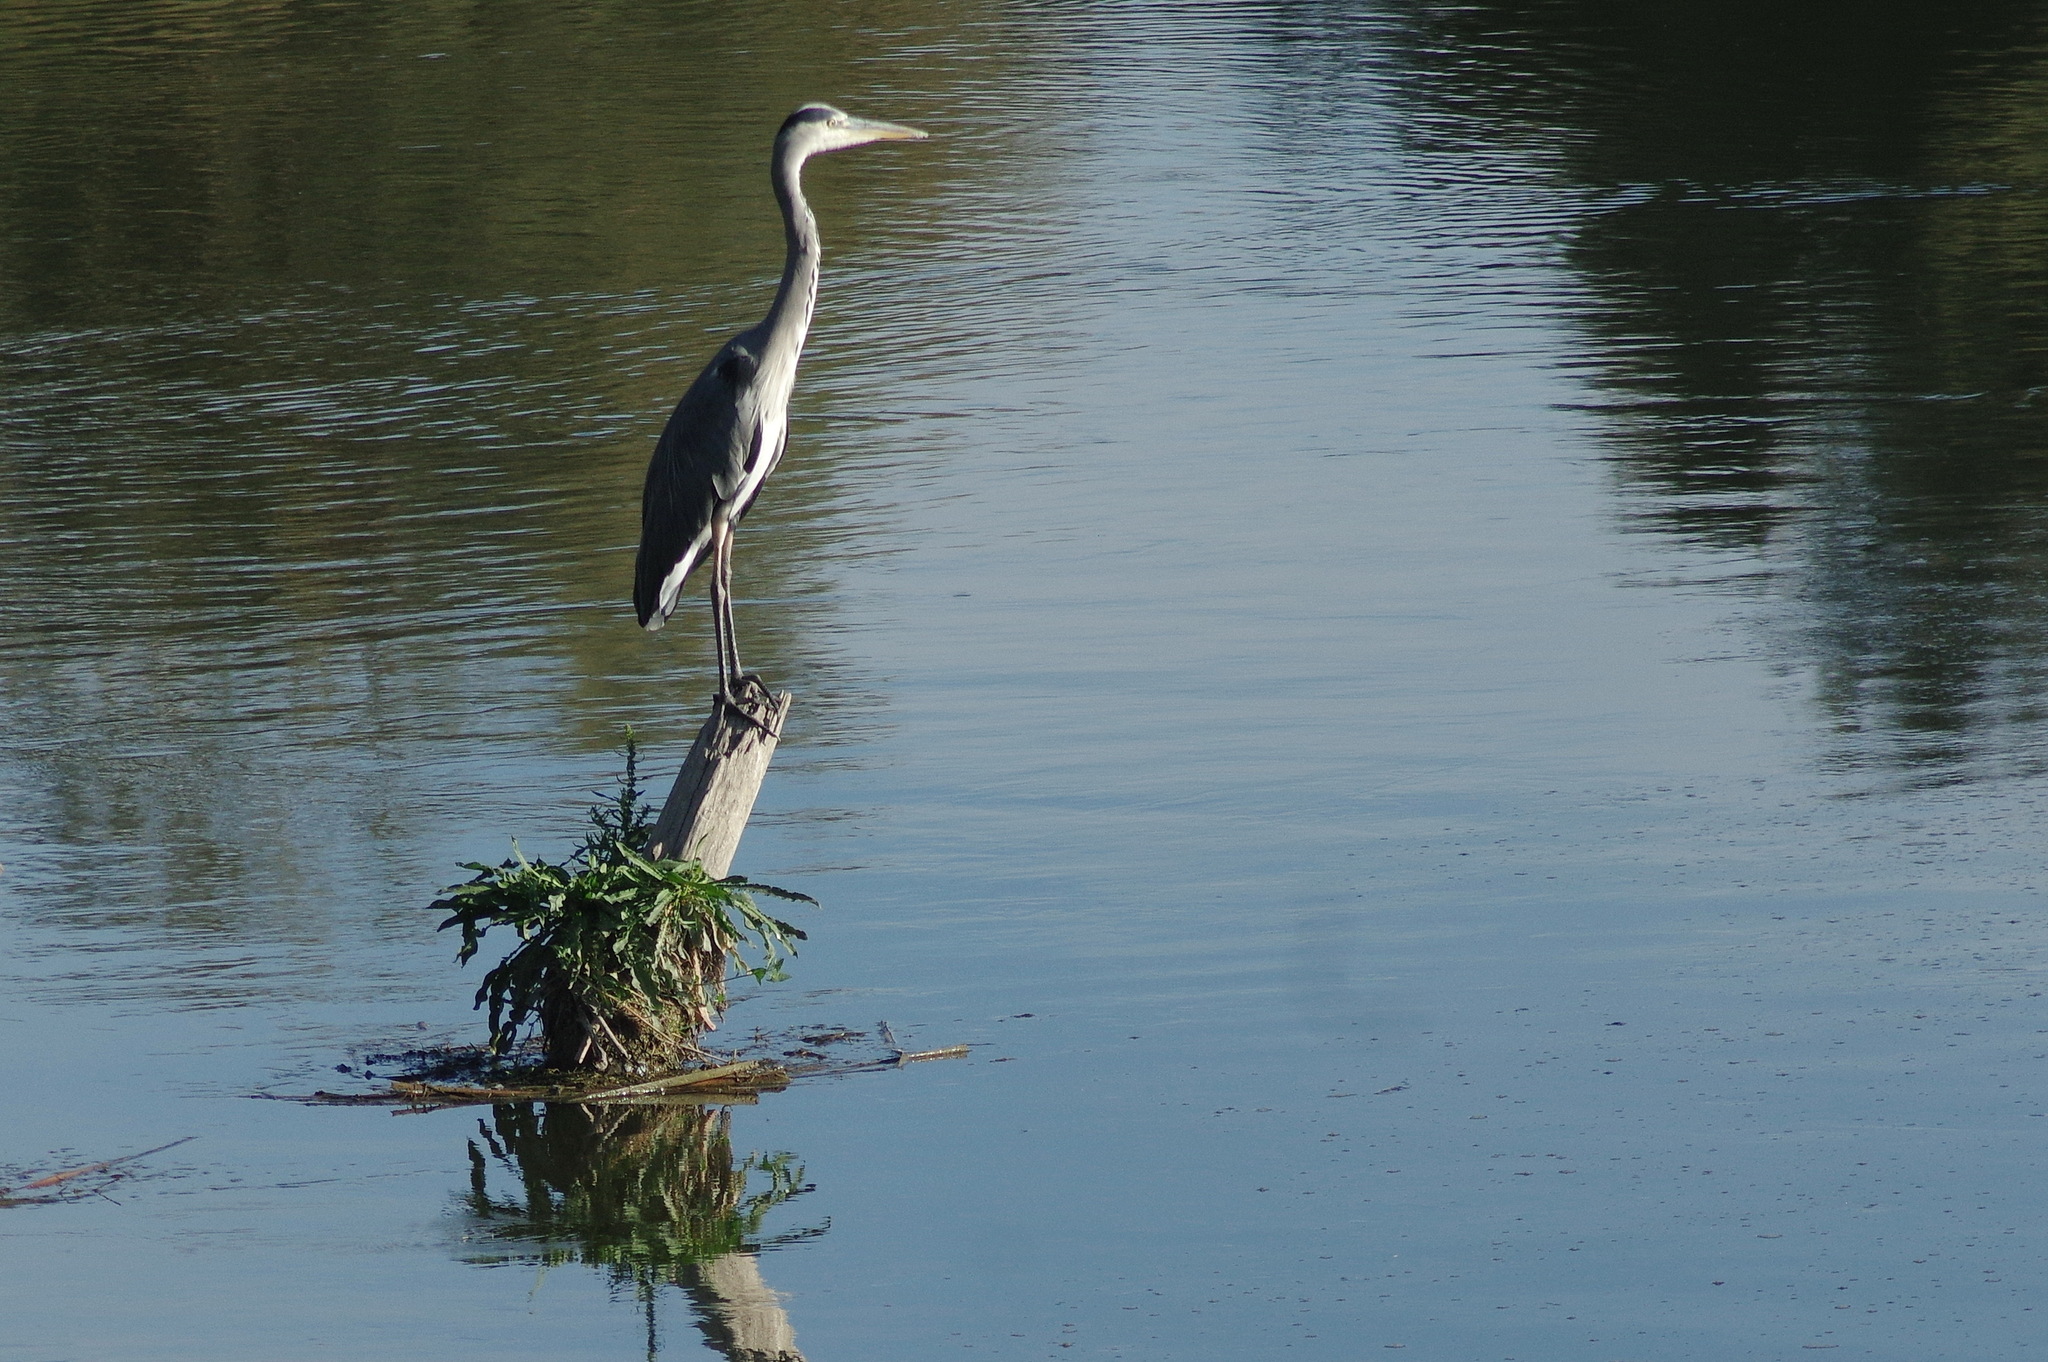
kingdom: Animalia
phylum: Chordata
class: Aves
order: Pelecaniformes
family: Ardeidae
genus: Ardea
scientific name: Ardea cinerea
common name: Grey heron
